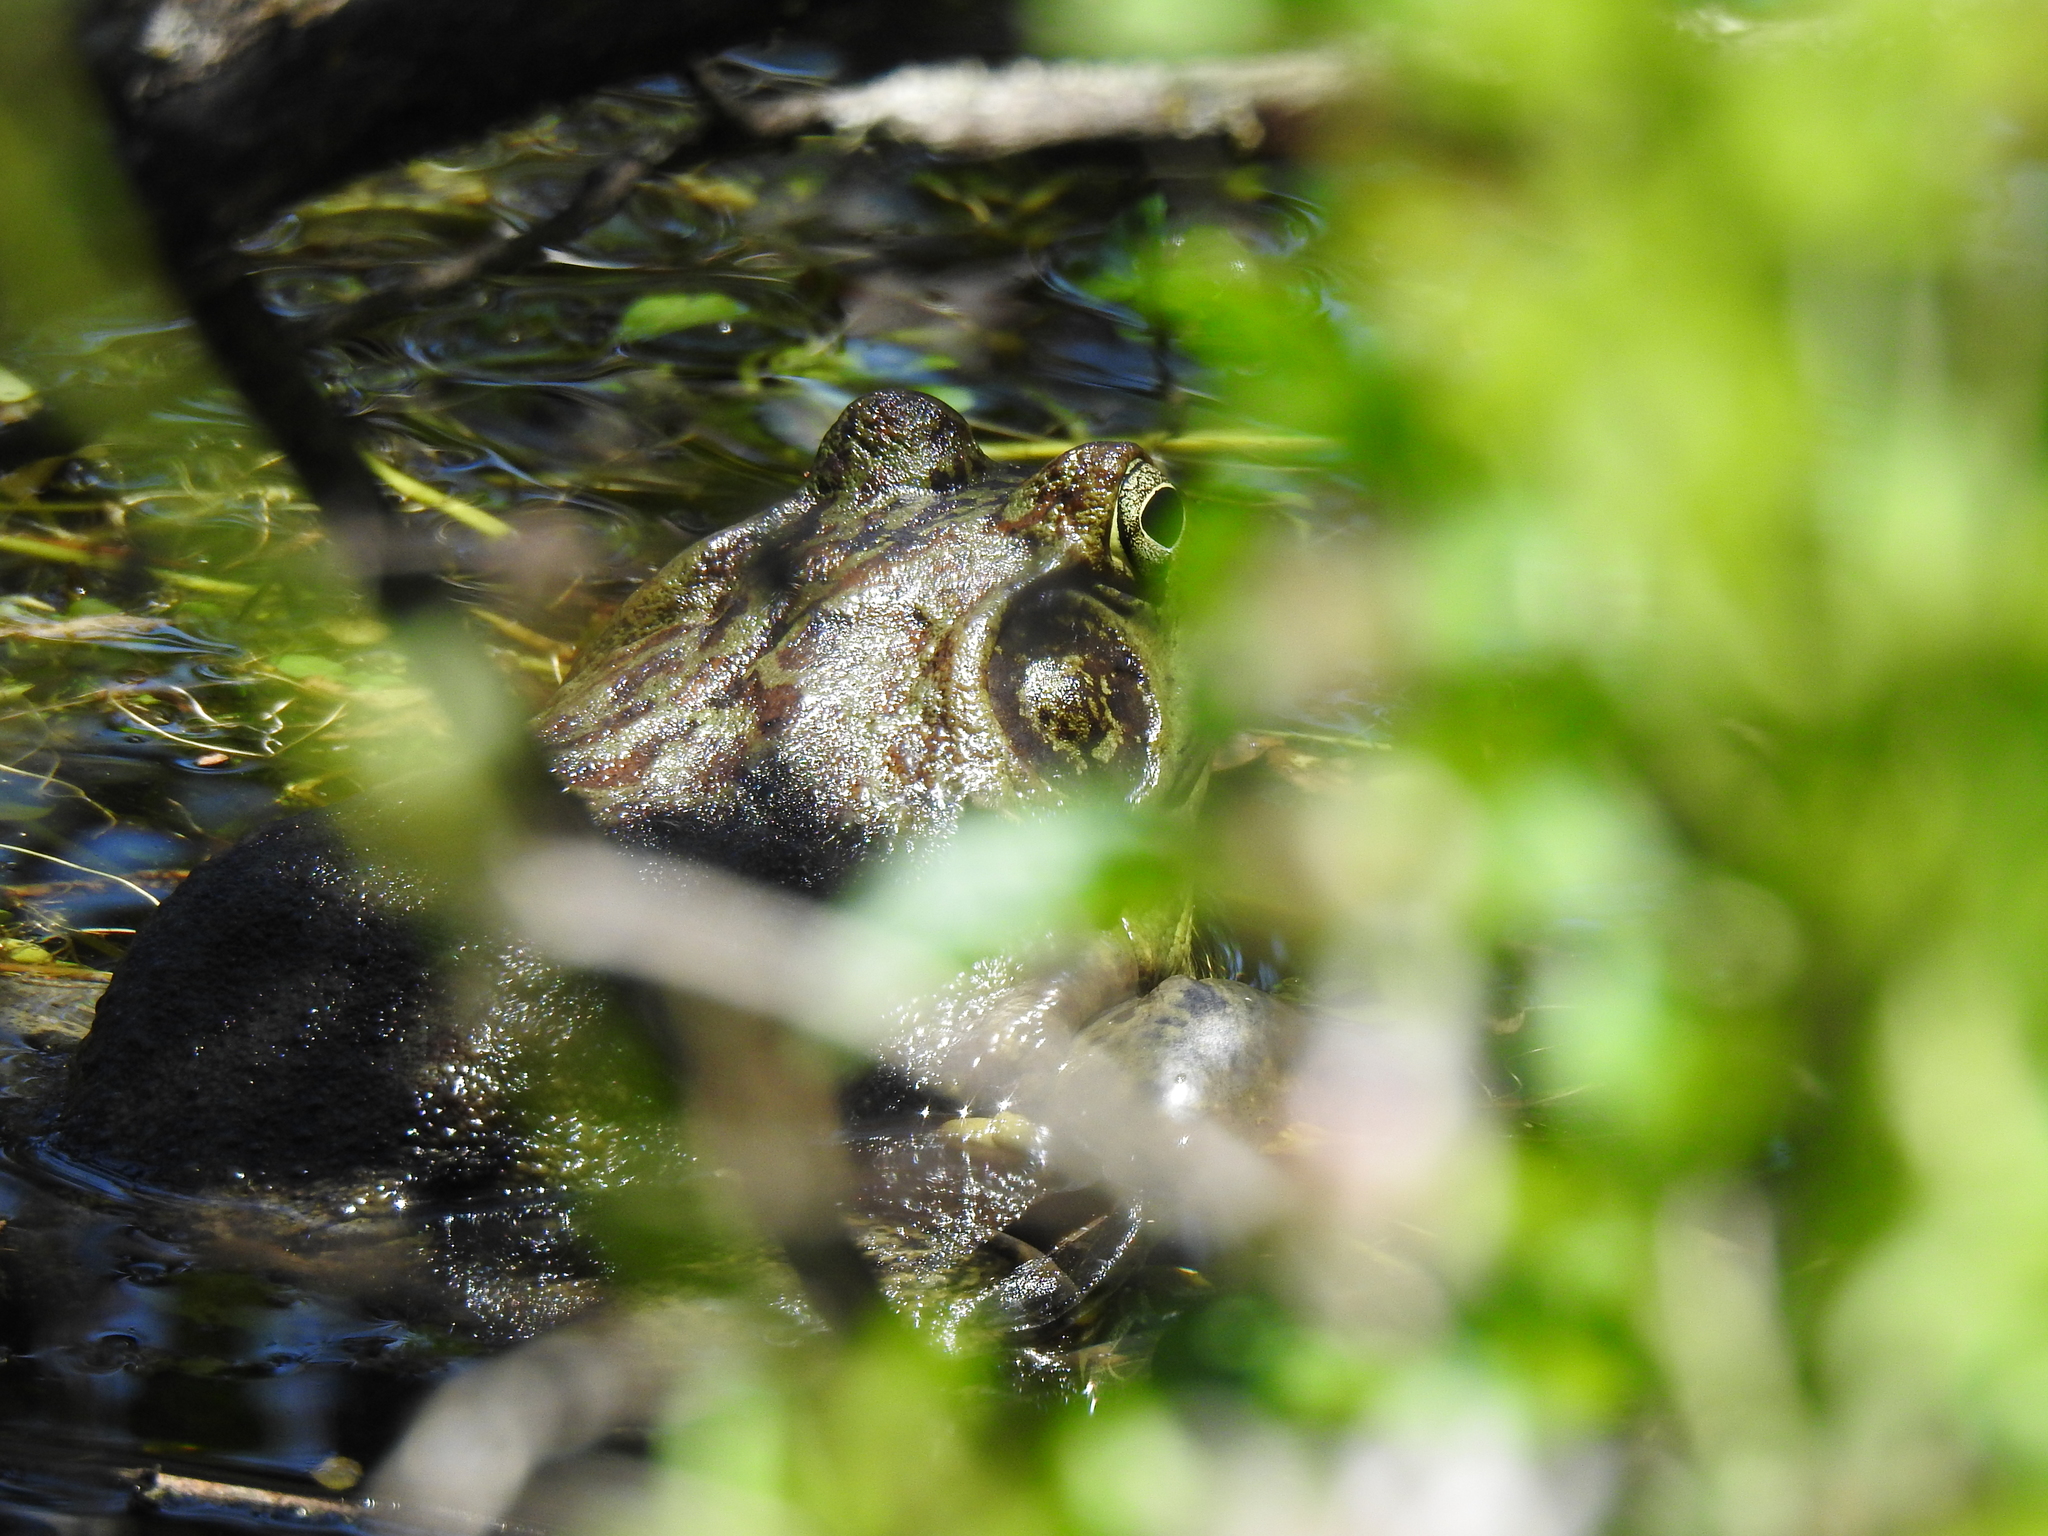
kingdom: Animalia
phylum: Chordata
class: Amphibia
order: Anura
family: Ranidae
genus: Lithobates
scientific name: Lithobates catesbeianus
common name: American bullfrog
